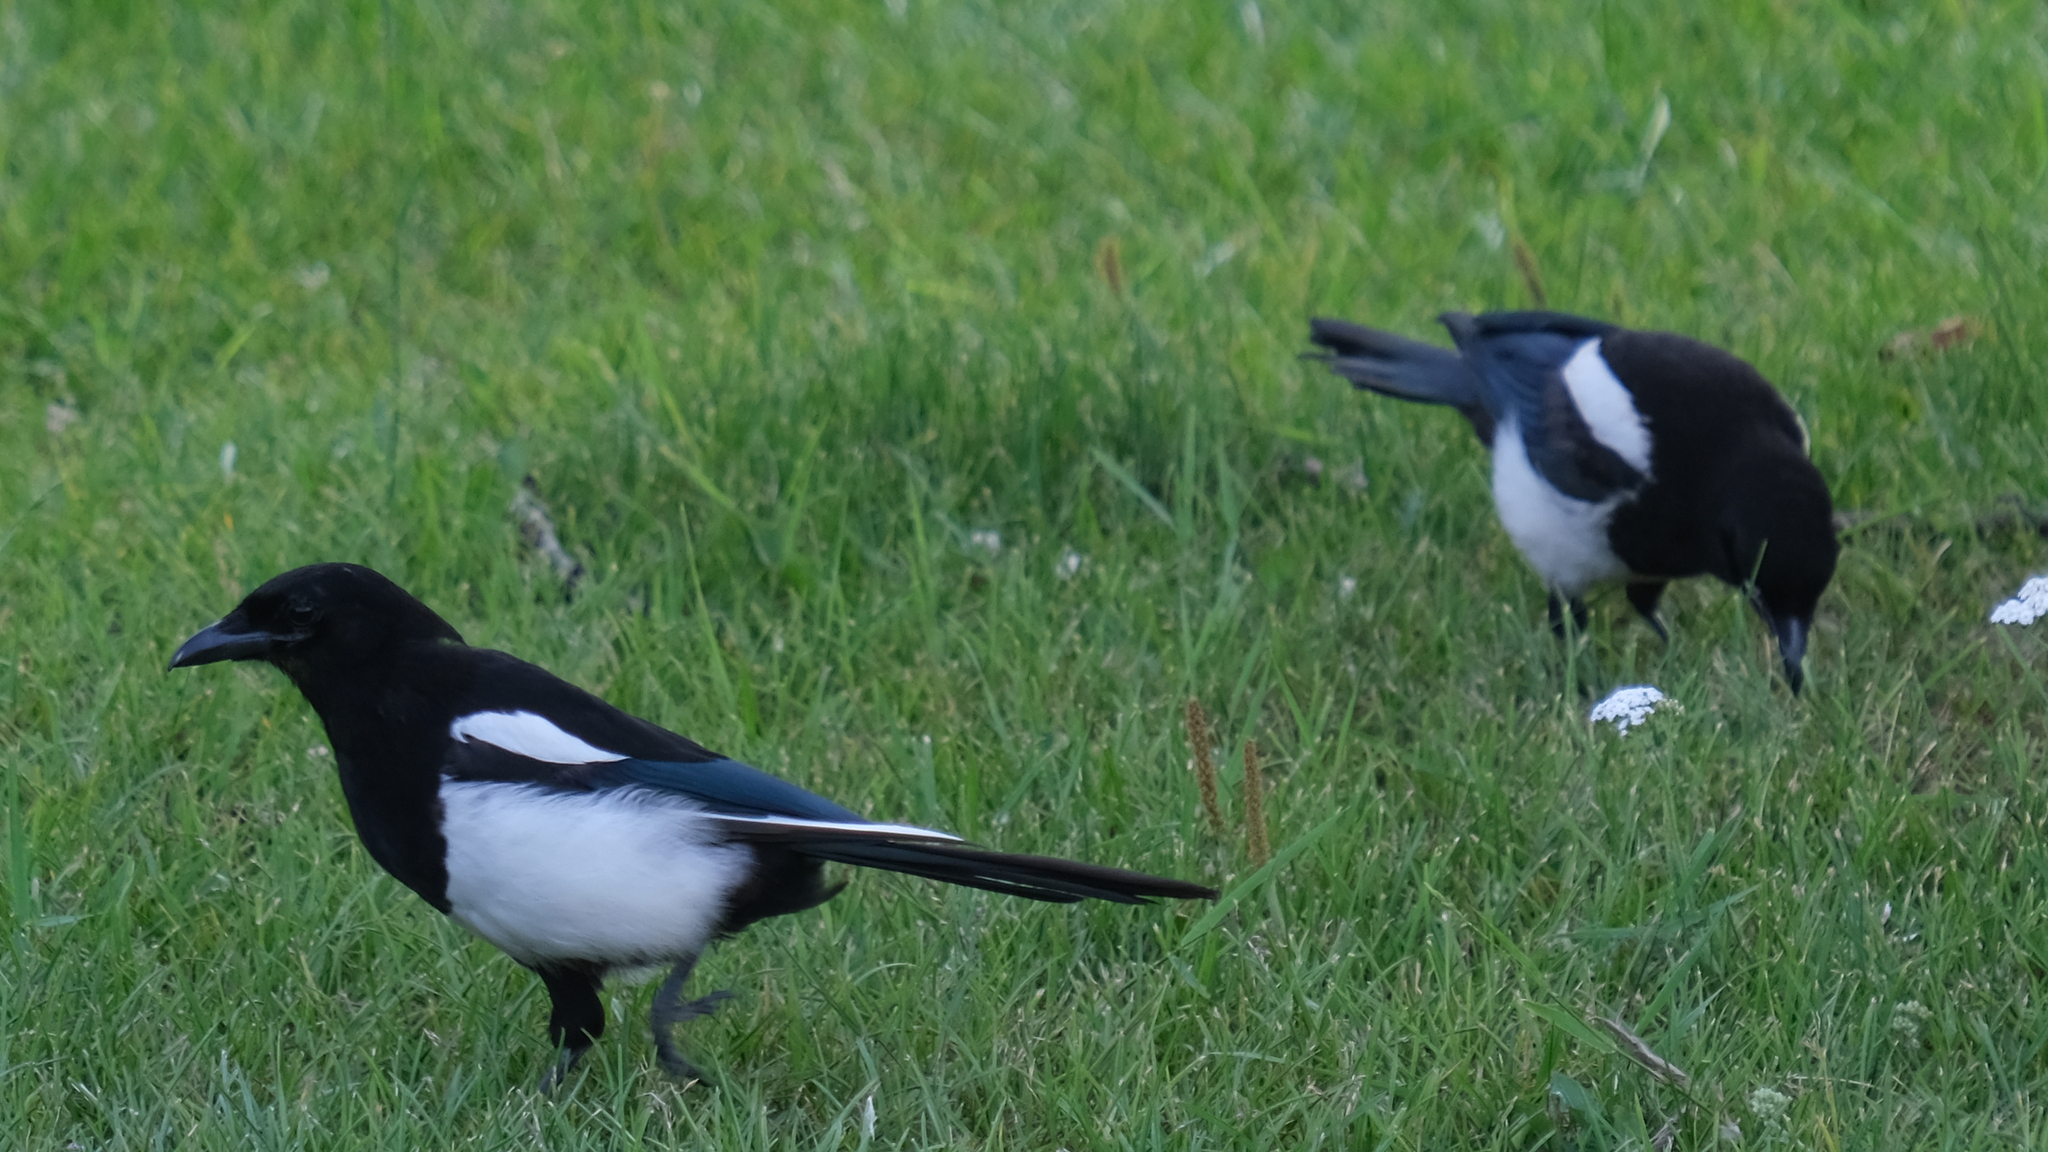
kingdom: Animalia
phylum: Chordata
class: Aves
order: Passeriformes
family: Corvidae
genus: Pica
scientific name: Pica hudsonia
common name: Black-billed magpie
